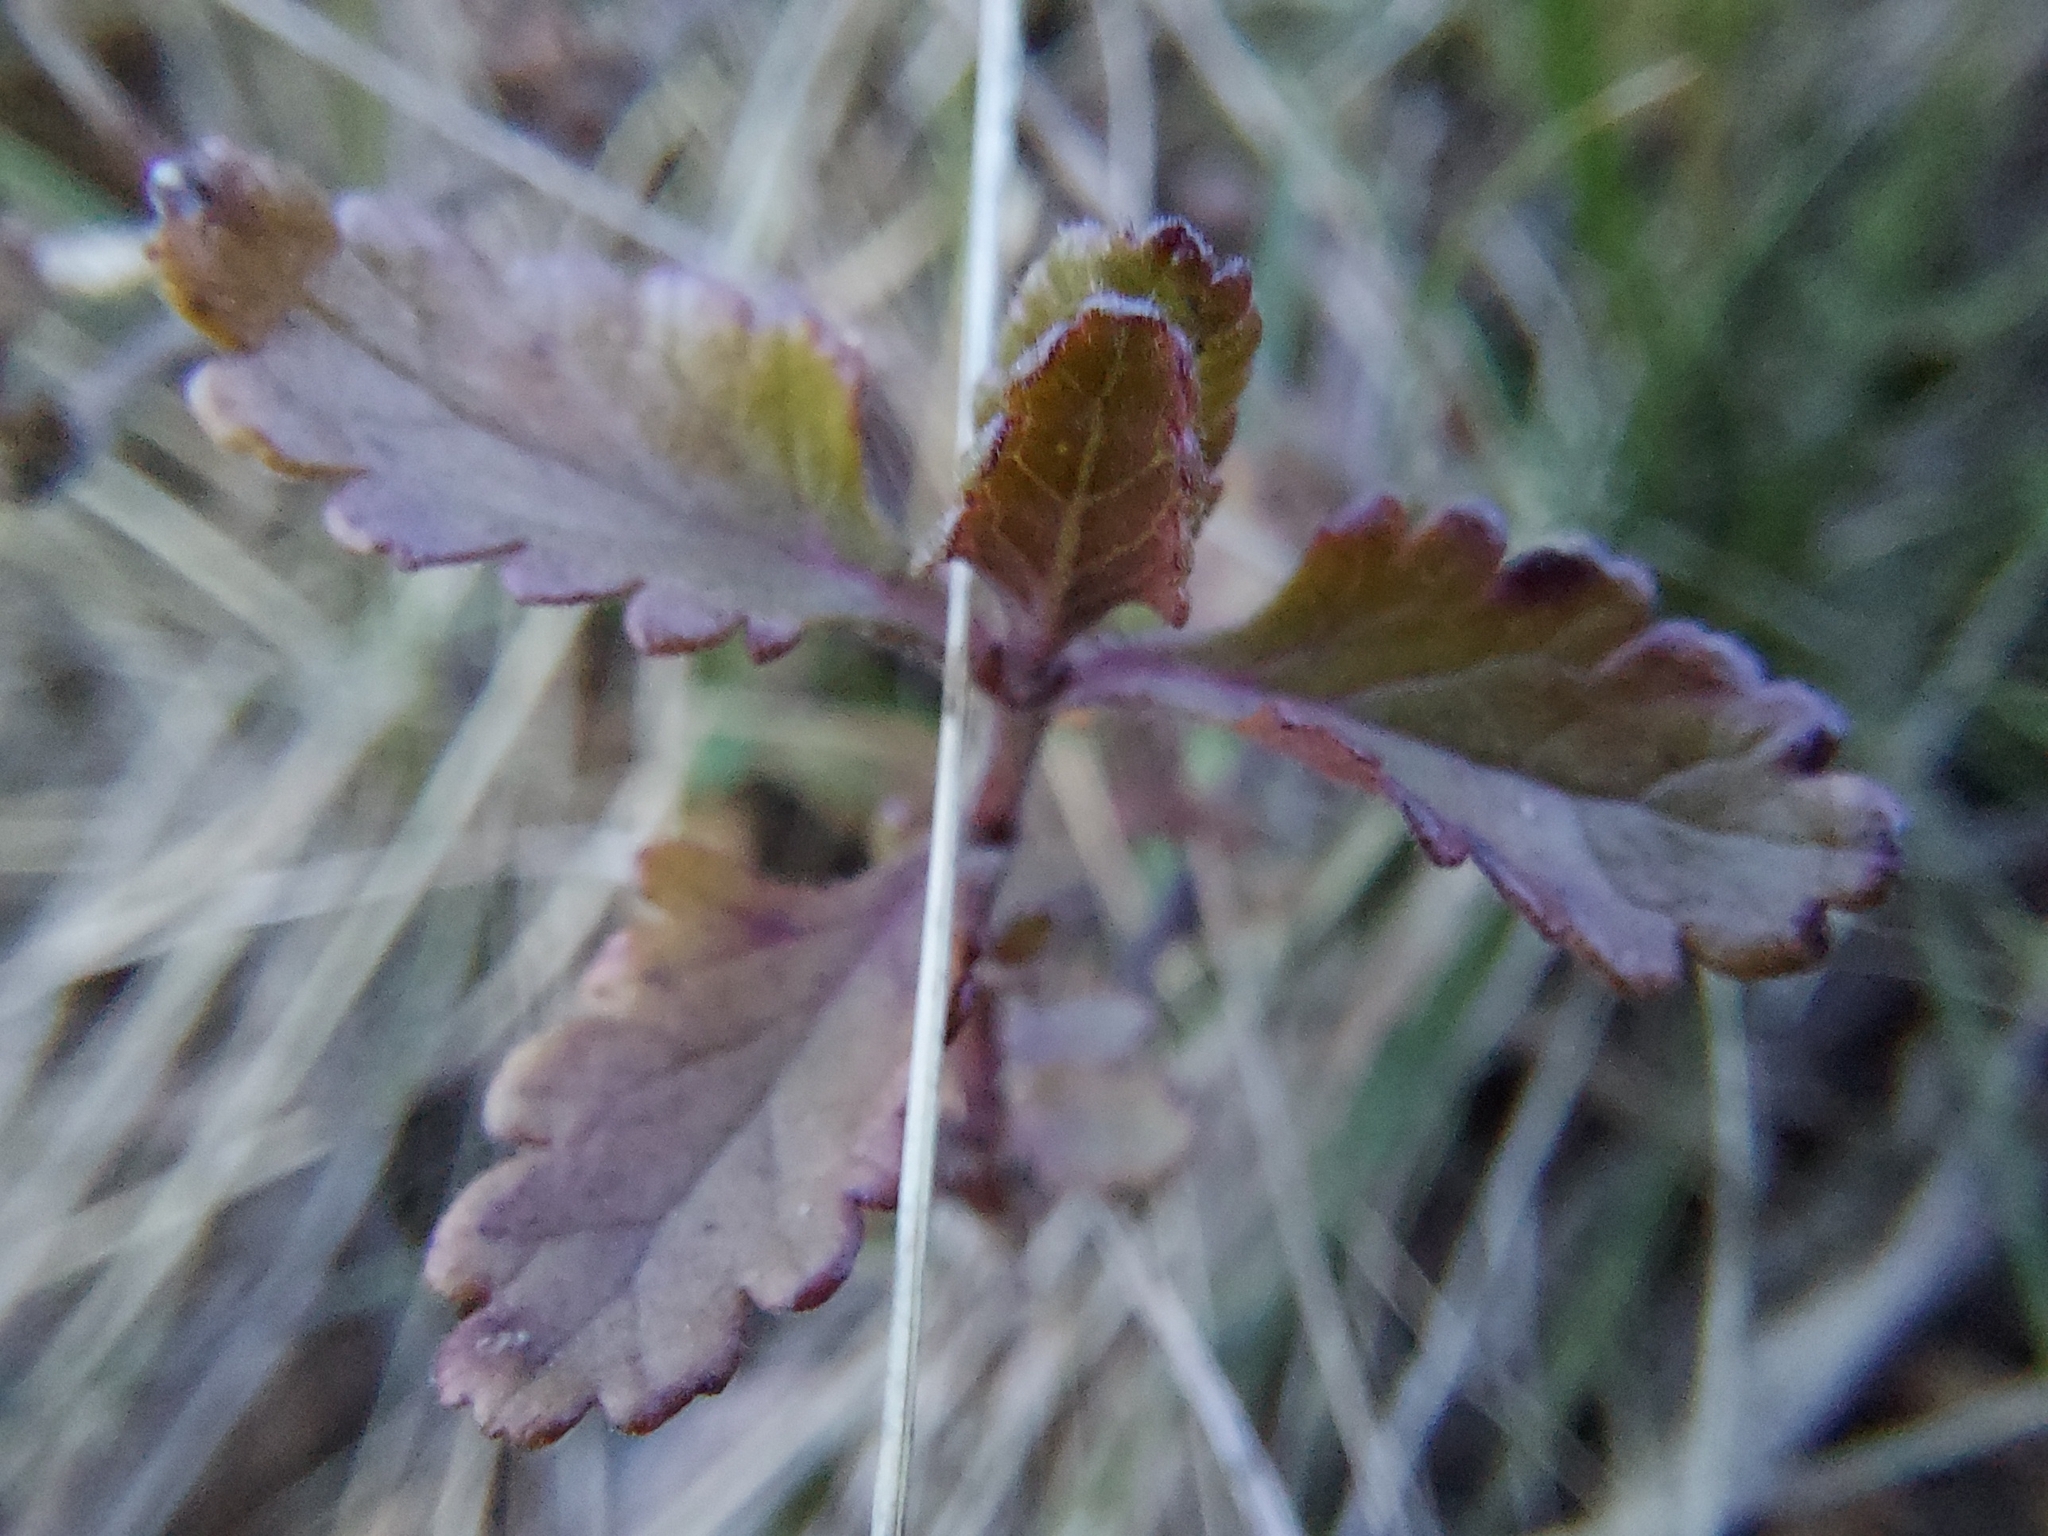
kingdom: Plantae
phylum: Tracheophyta
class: Magnoliopsida
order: Lamiales
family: Lamiaceae
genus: Teucrium
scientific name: Teucrium chamaedrys
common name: Wall germander
